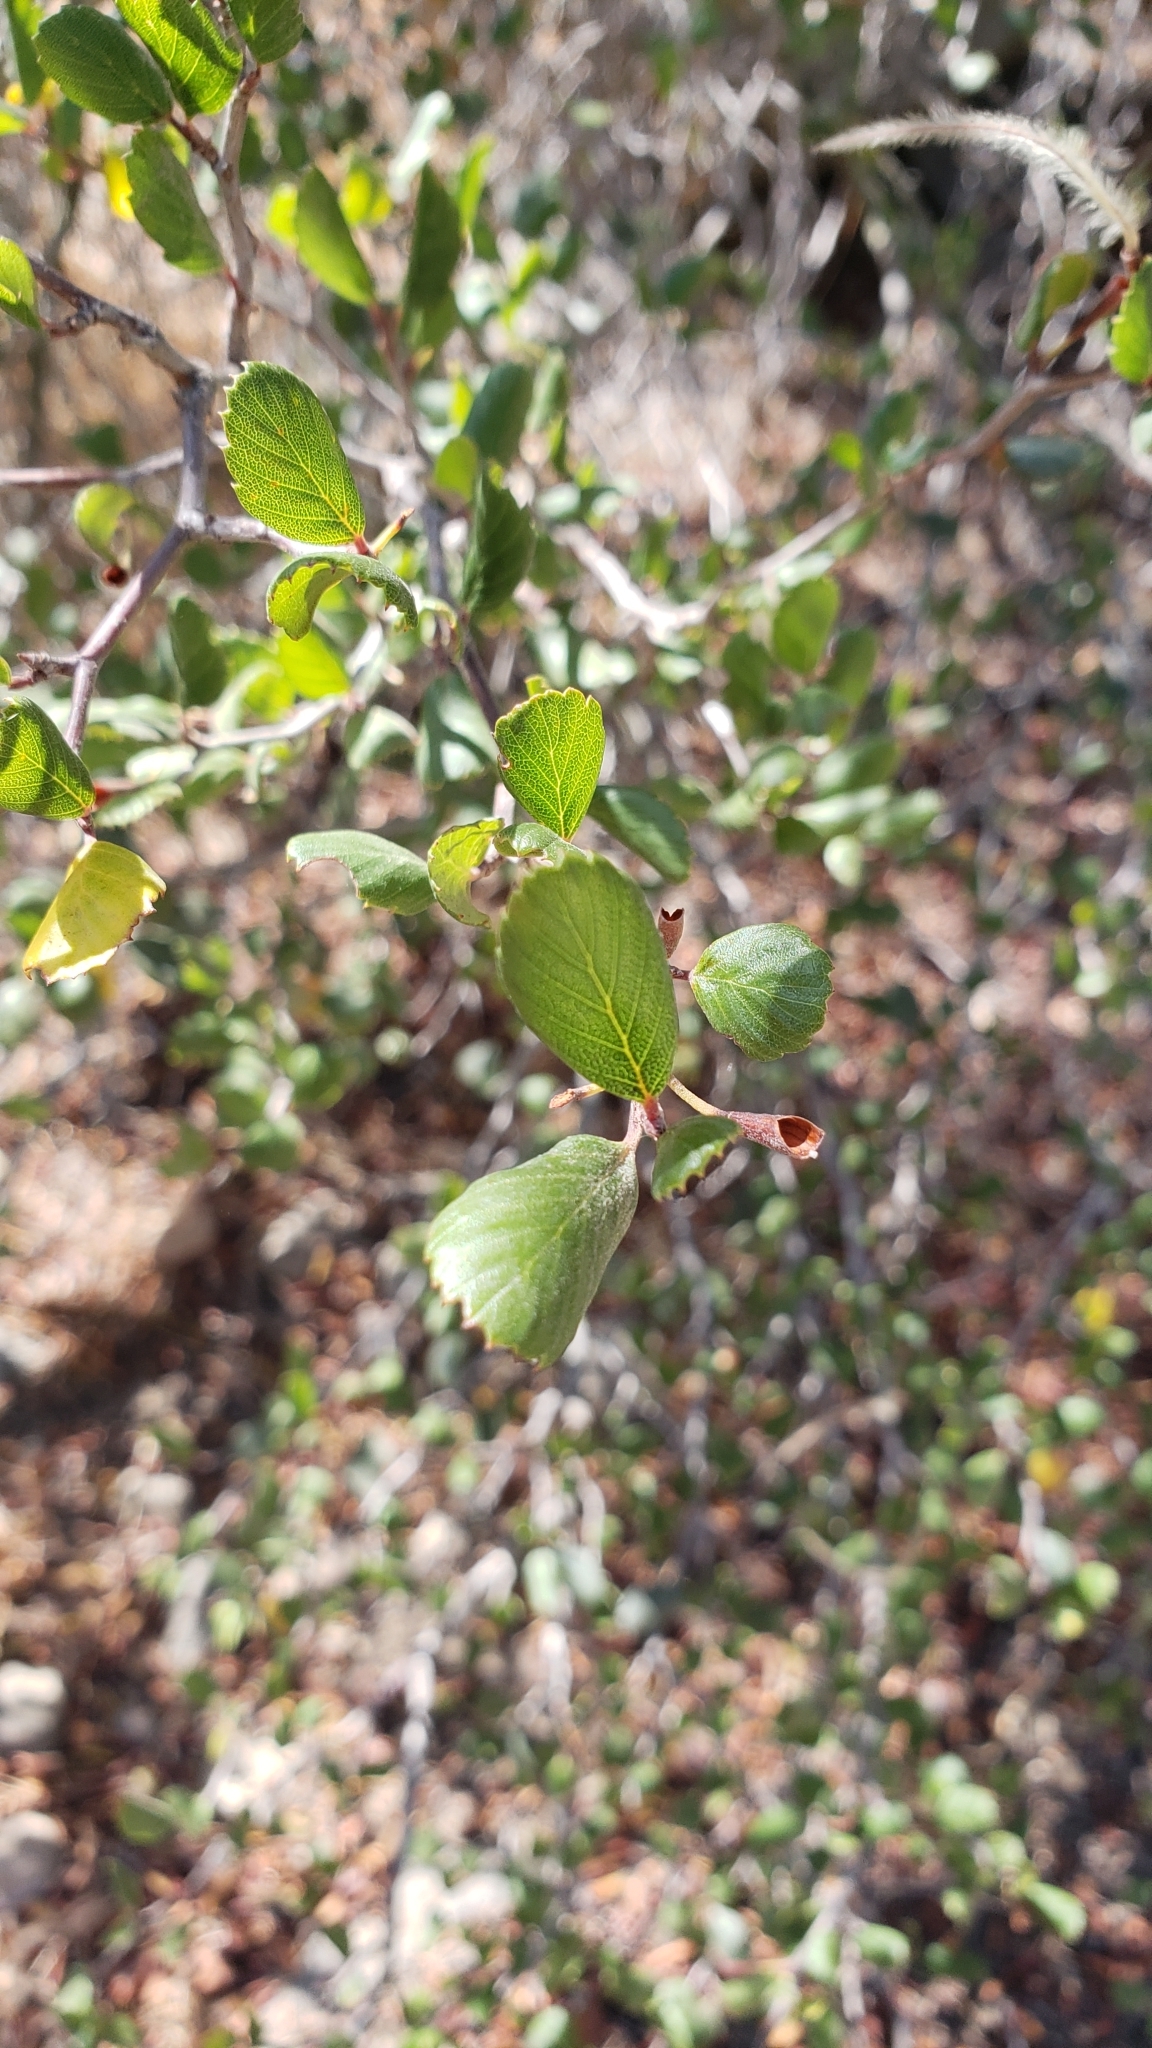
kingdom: Plantae
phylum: Tracheophyta
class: Magnoliopsida
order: Rosales
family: Rosaceae
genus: Cercocarpus
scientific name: Cercocarpus montanus
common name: Alder-leaf cercocarpus
